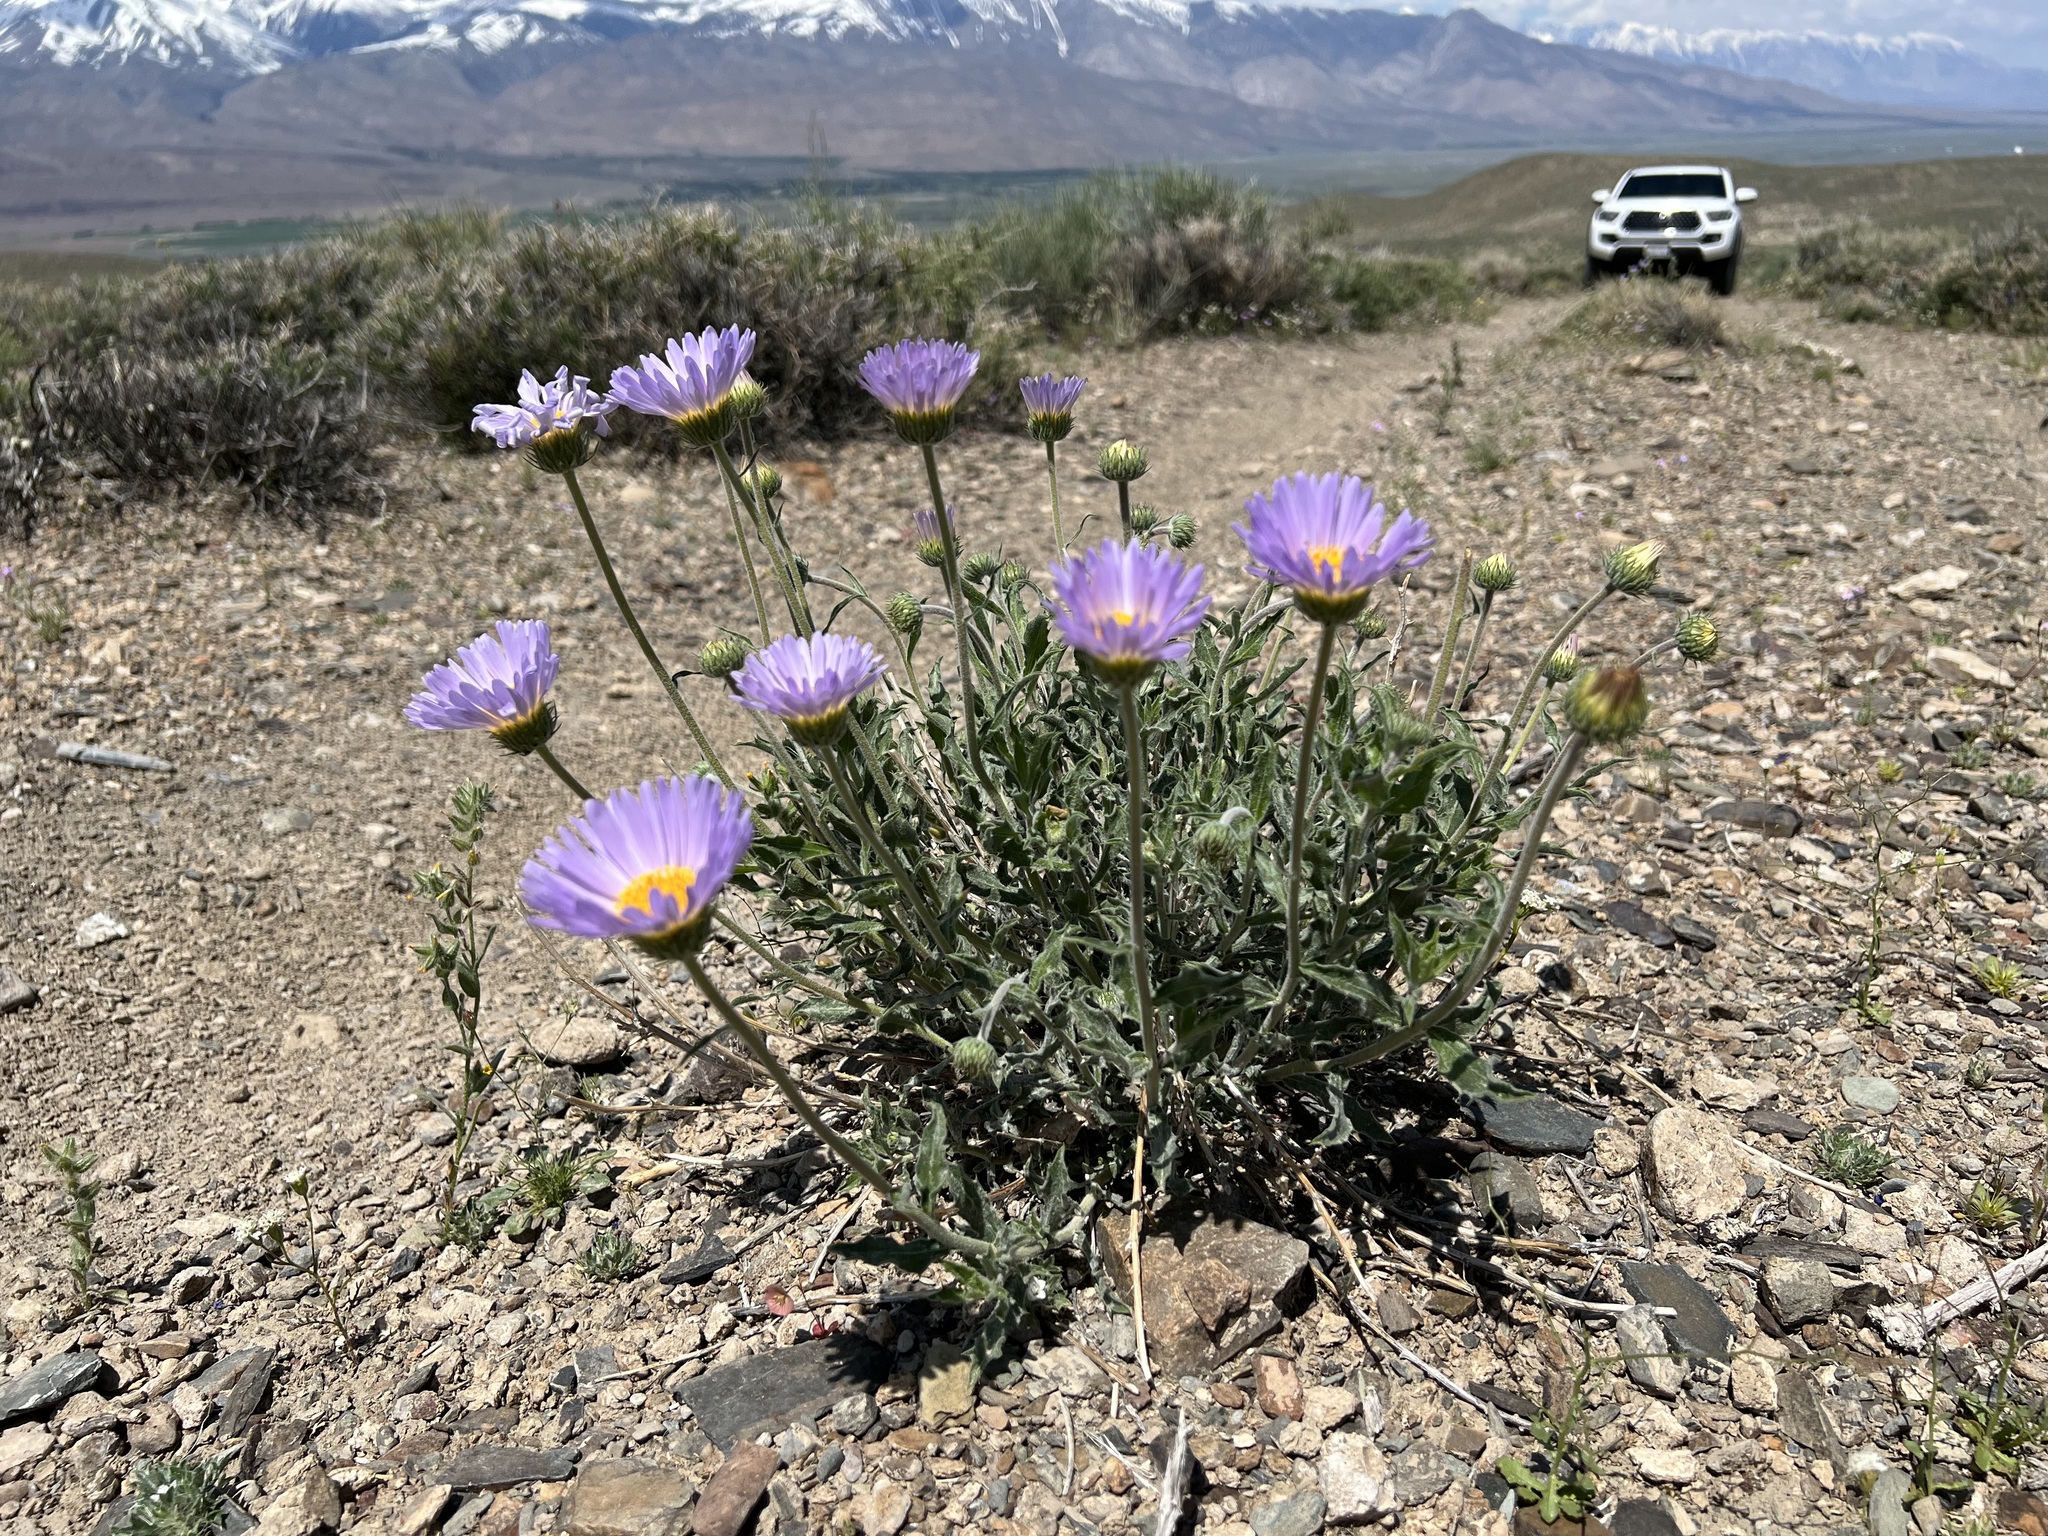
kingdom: Plantae
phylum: Tracheophyta
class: Magnoliopsida
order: Asterales
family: Asteraceae
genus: Xylorhiza
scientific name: Xylorhiza tortifolia
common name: Hurt-leaf woody-aster
